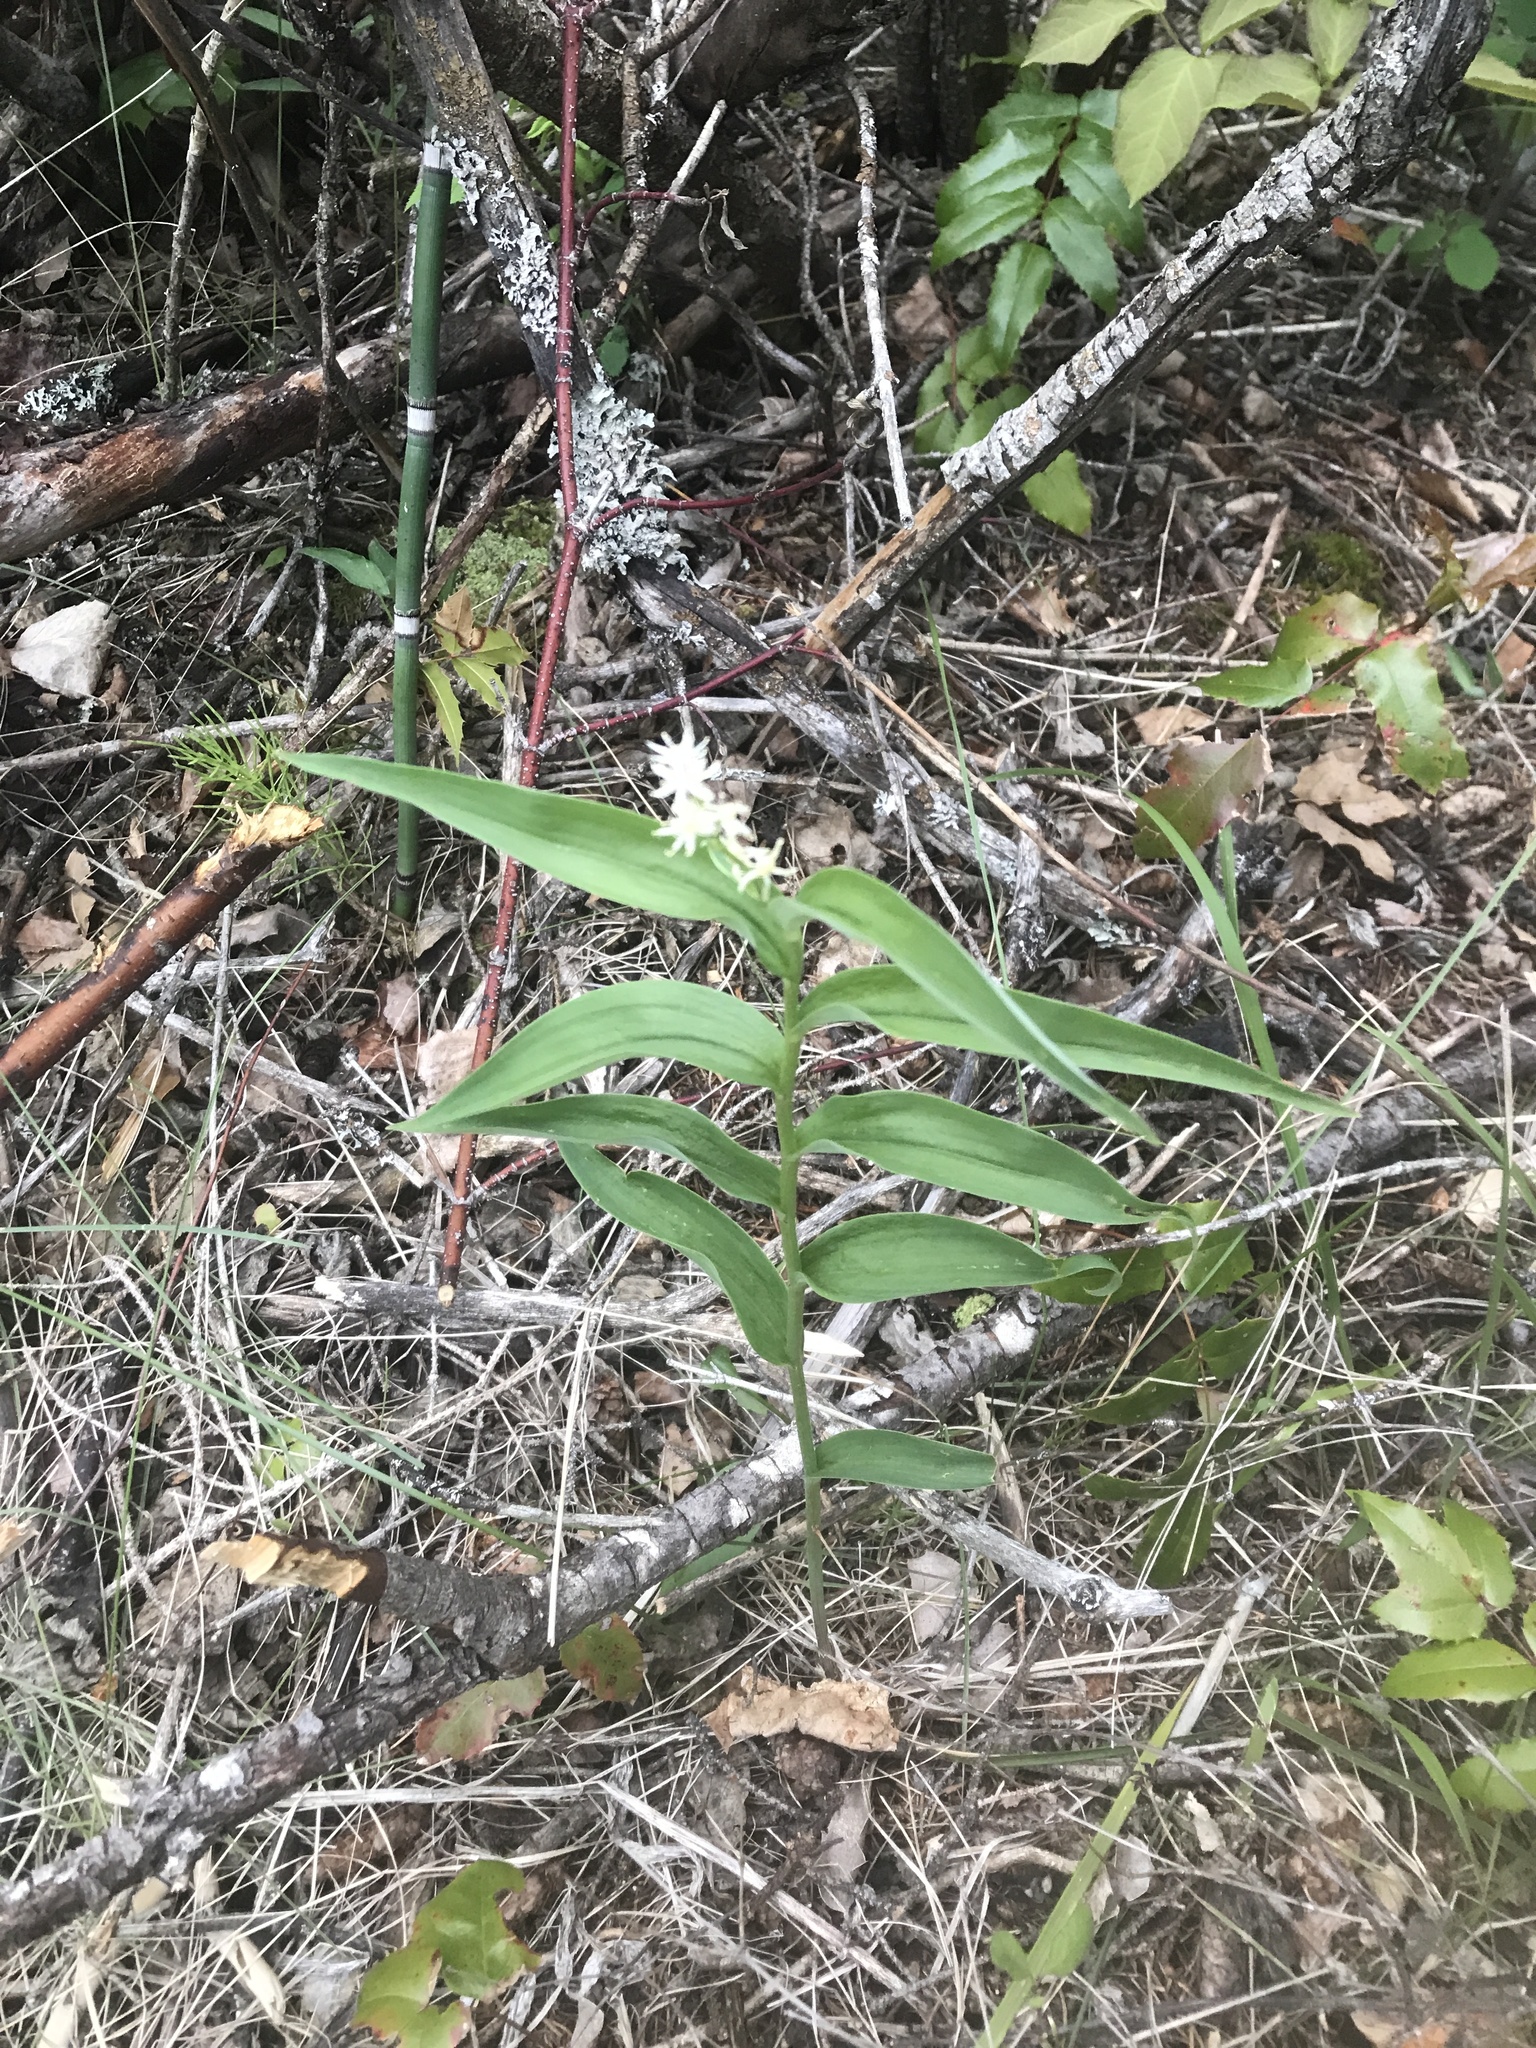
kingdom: Plantae
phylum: Tracheophyta
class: Liliopsida
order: Asparagales
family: Asparagaceae
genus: Maianthemum
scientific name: Maianthemum stellatum
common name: Little false solomon's seal
